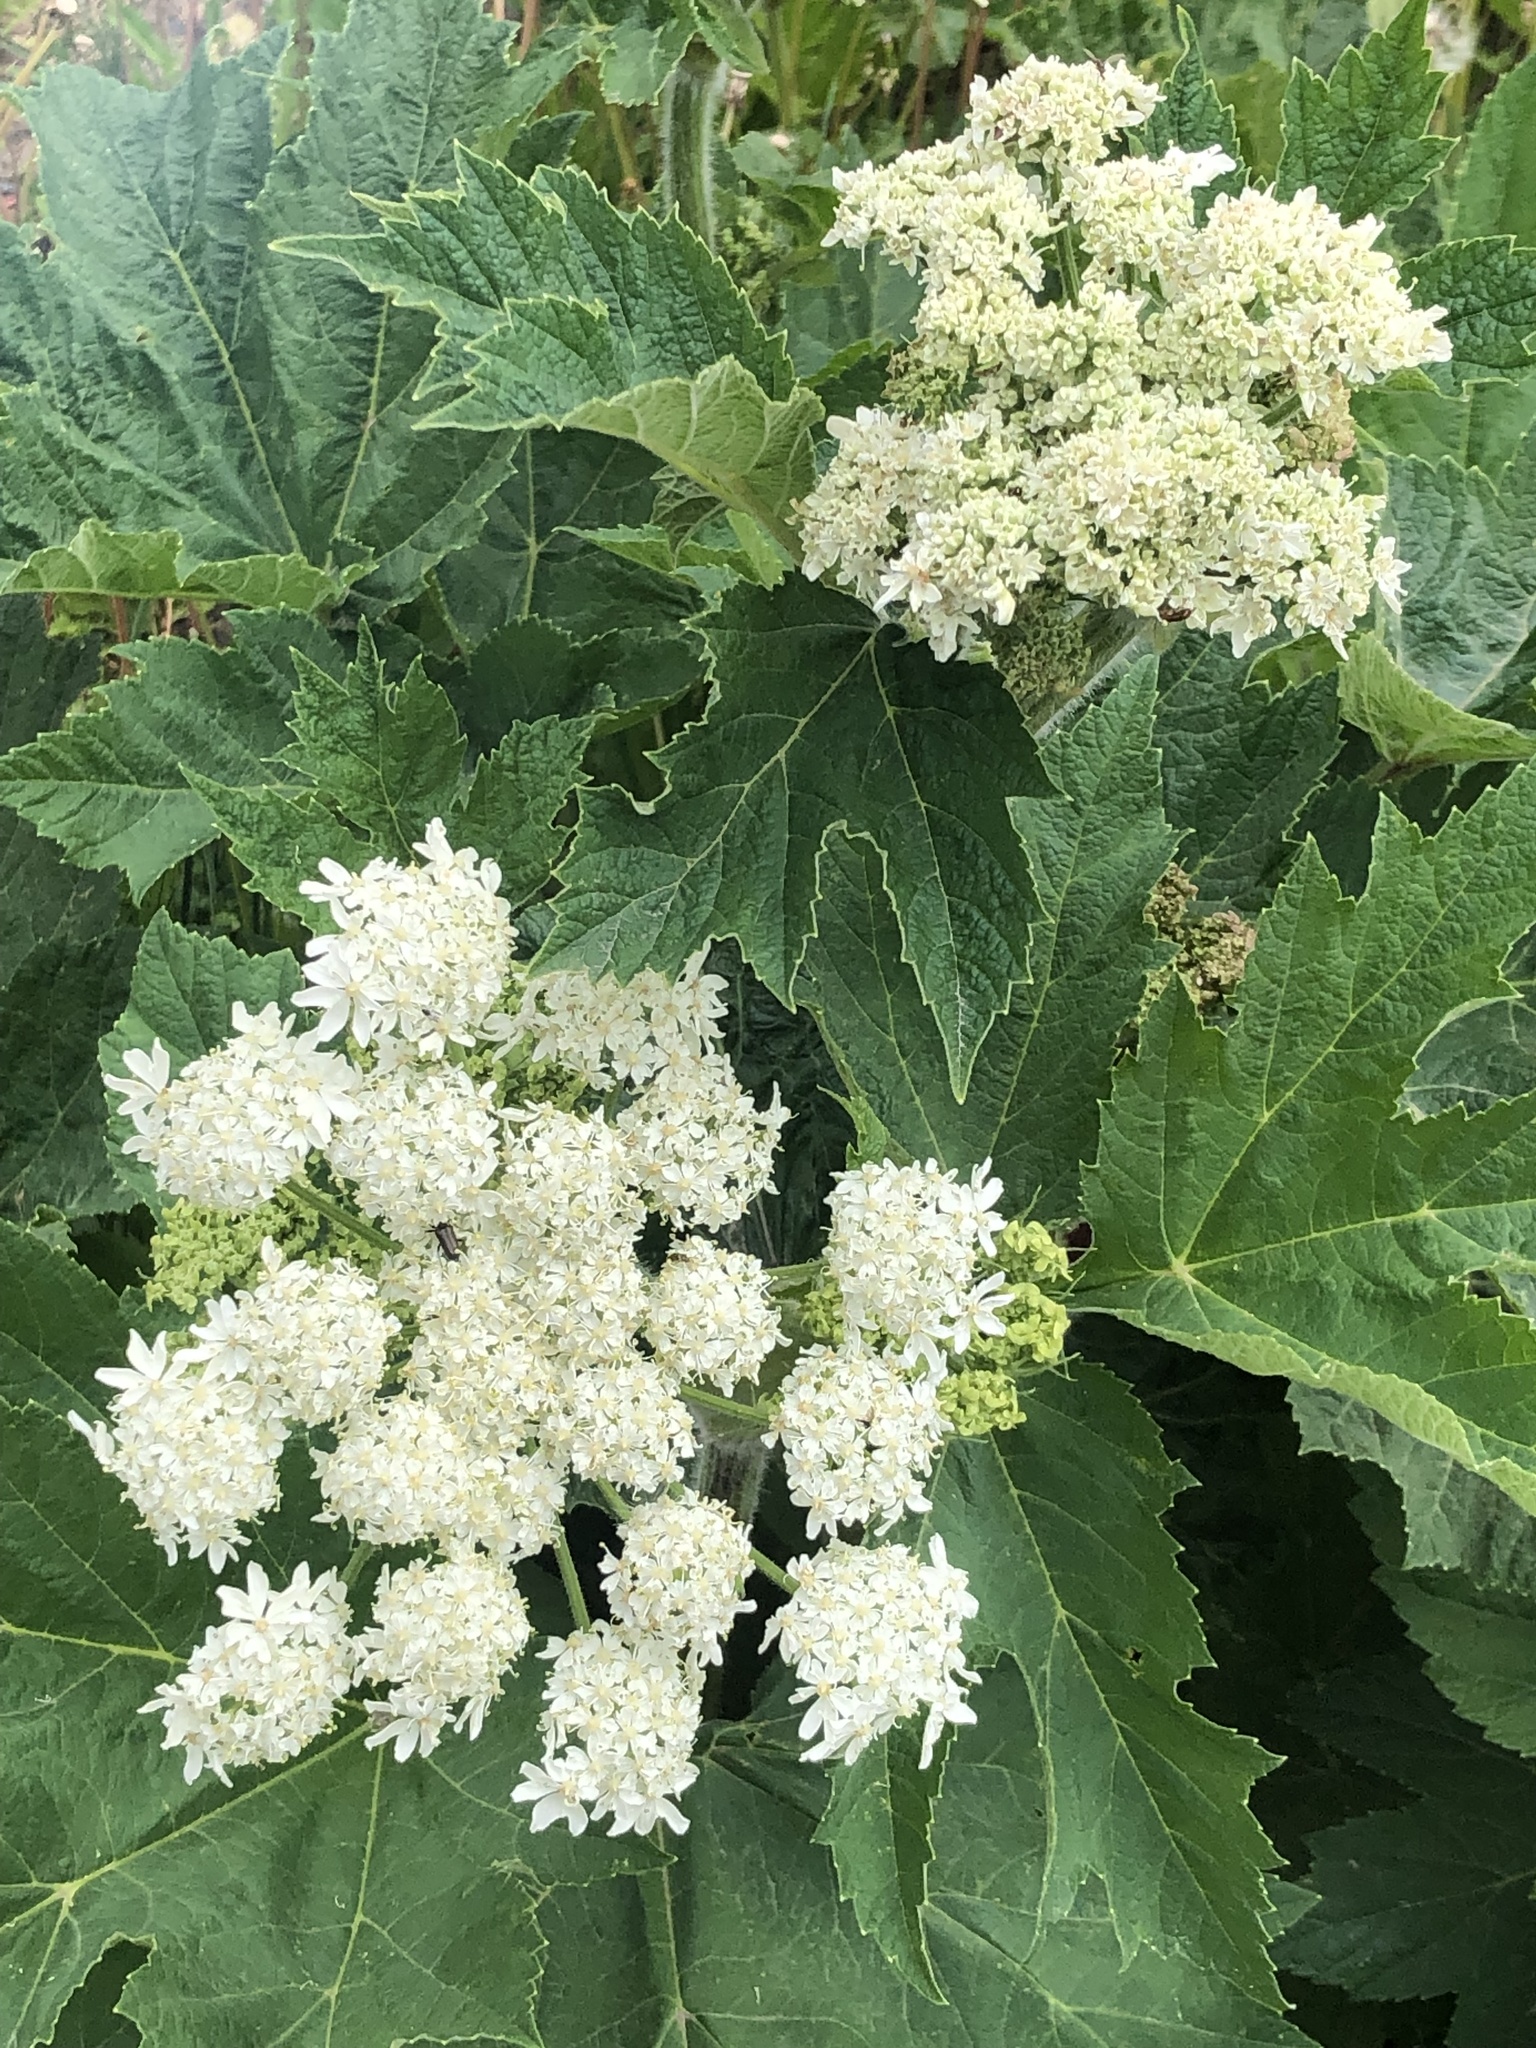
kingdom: Plantae
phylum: Tracheophyta
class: Magnoliopsida
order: Apiales
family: Apiaceae
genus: Heracleum
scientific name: Heracleum maximum
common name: American cow parsnip
